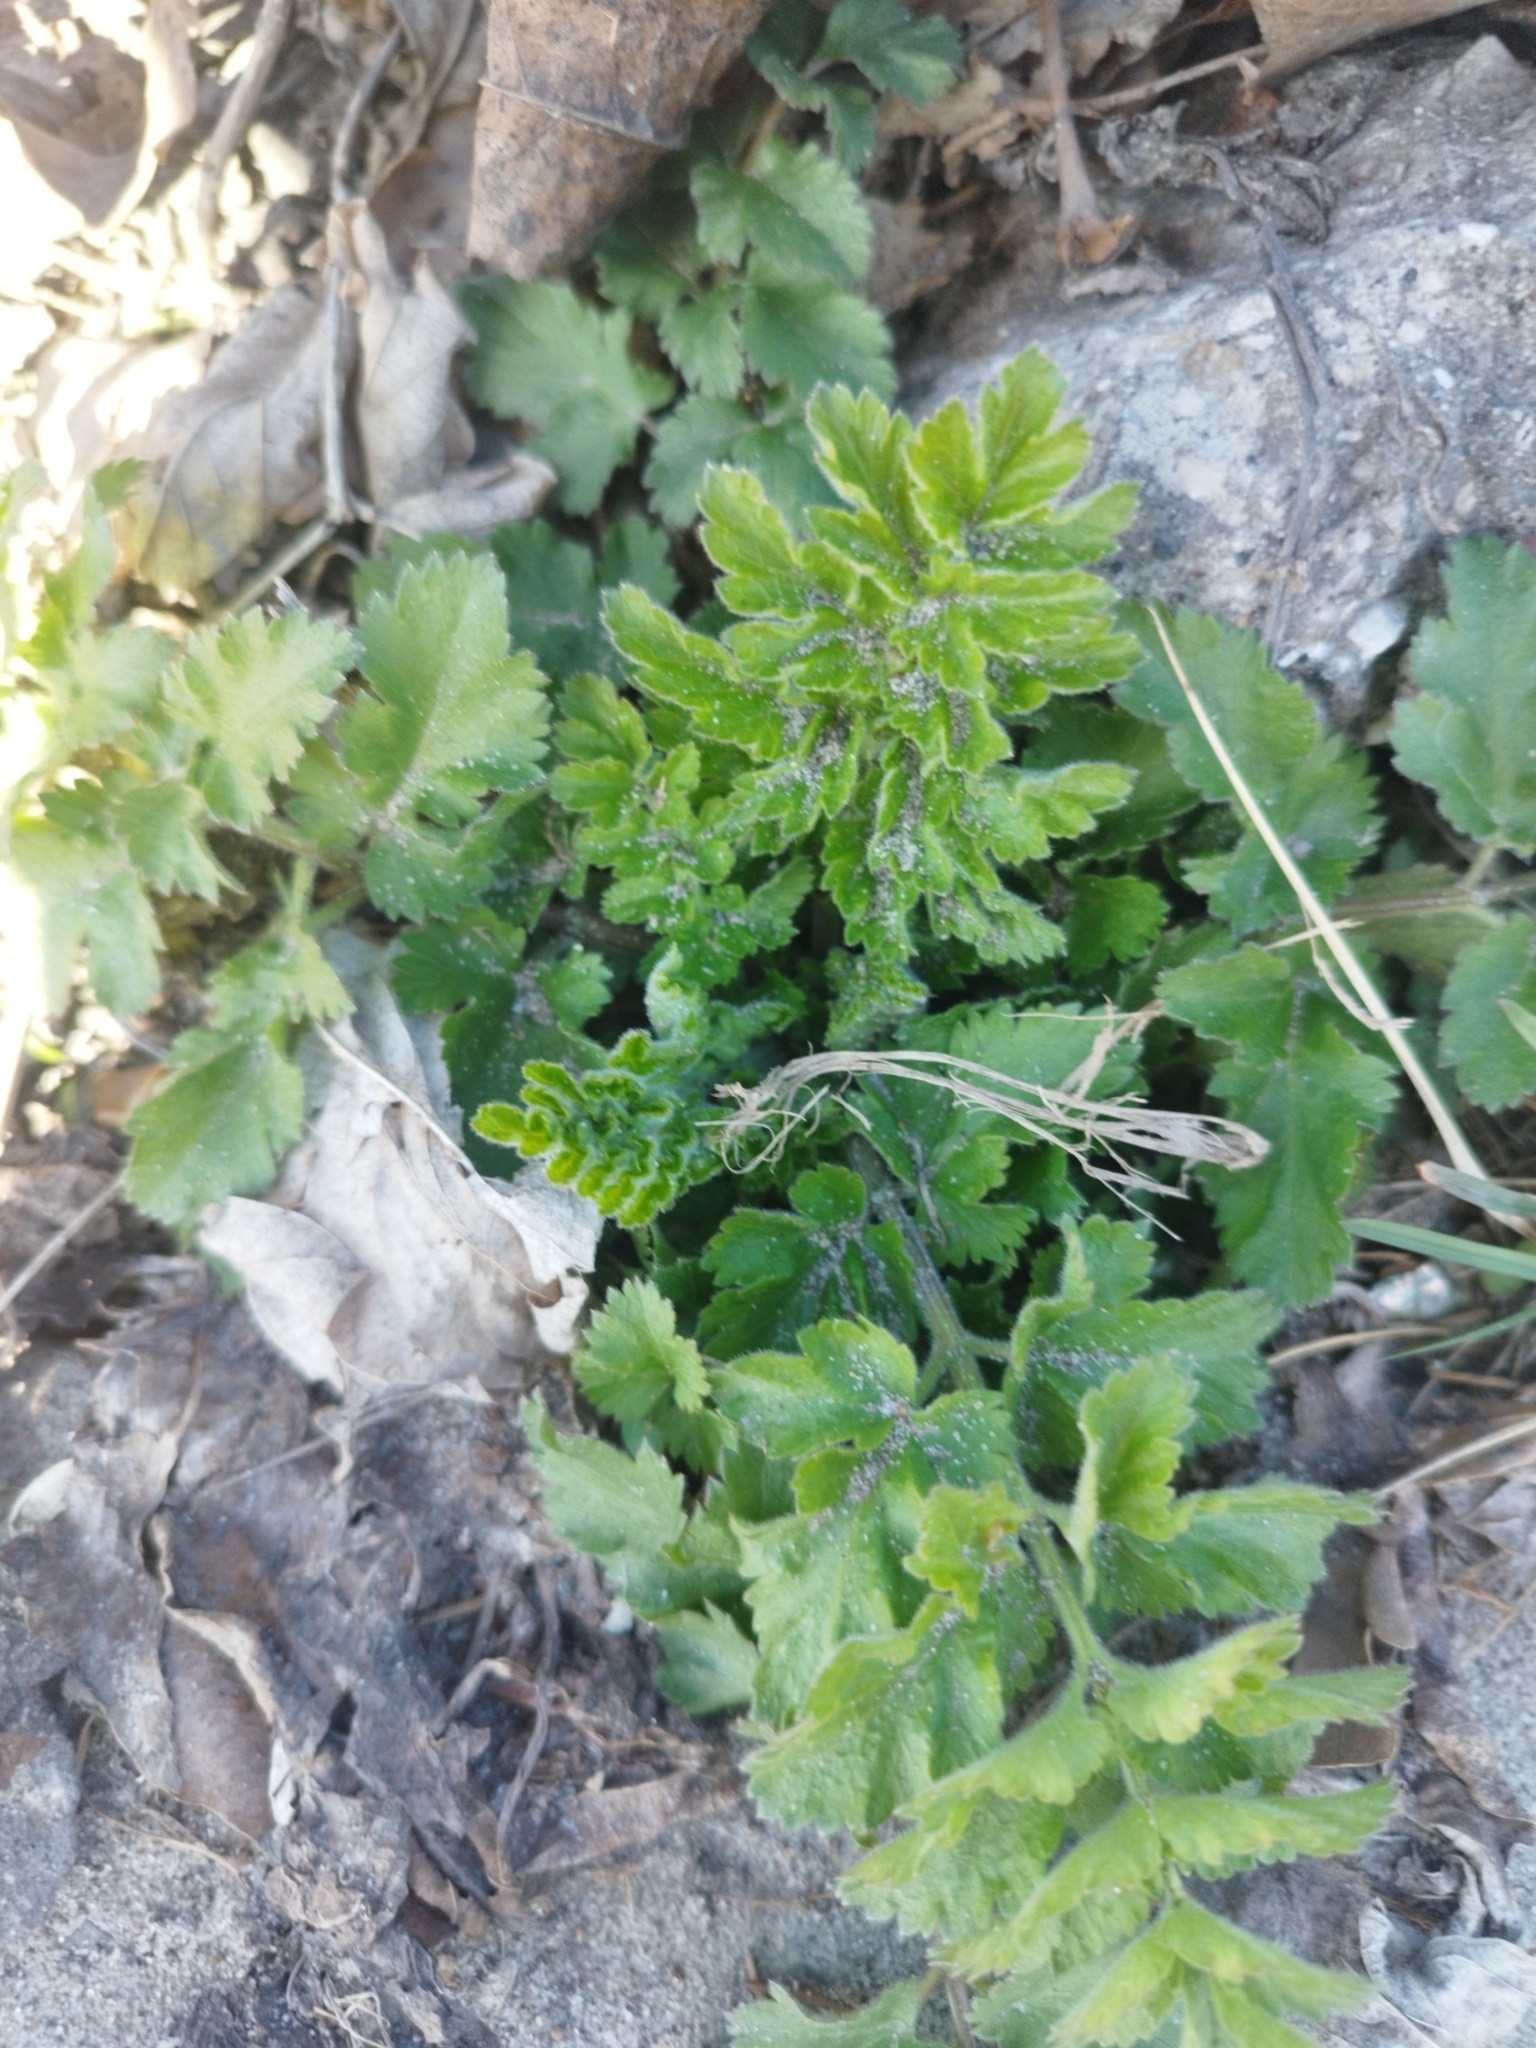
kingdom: Plantae
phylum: Tracheophyta
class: Magnoliopsida
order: Apiales
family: Apiaceae
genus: Pastinaca
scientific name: Pastinaca sativa
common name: Wild parsnip
